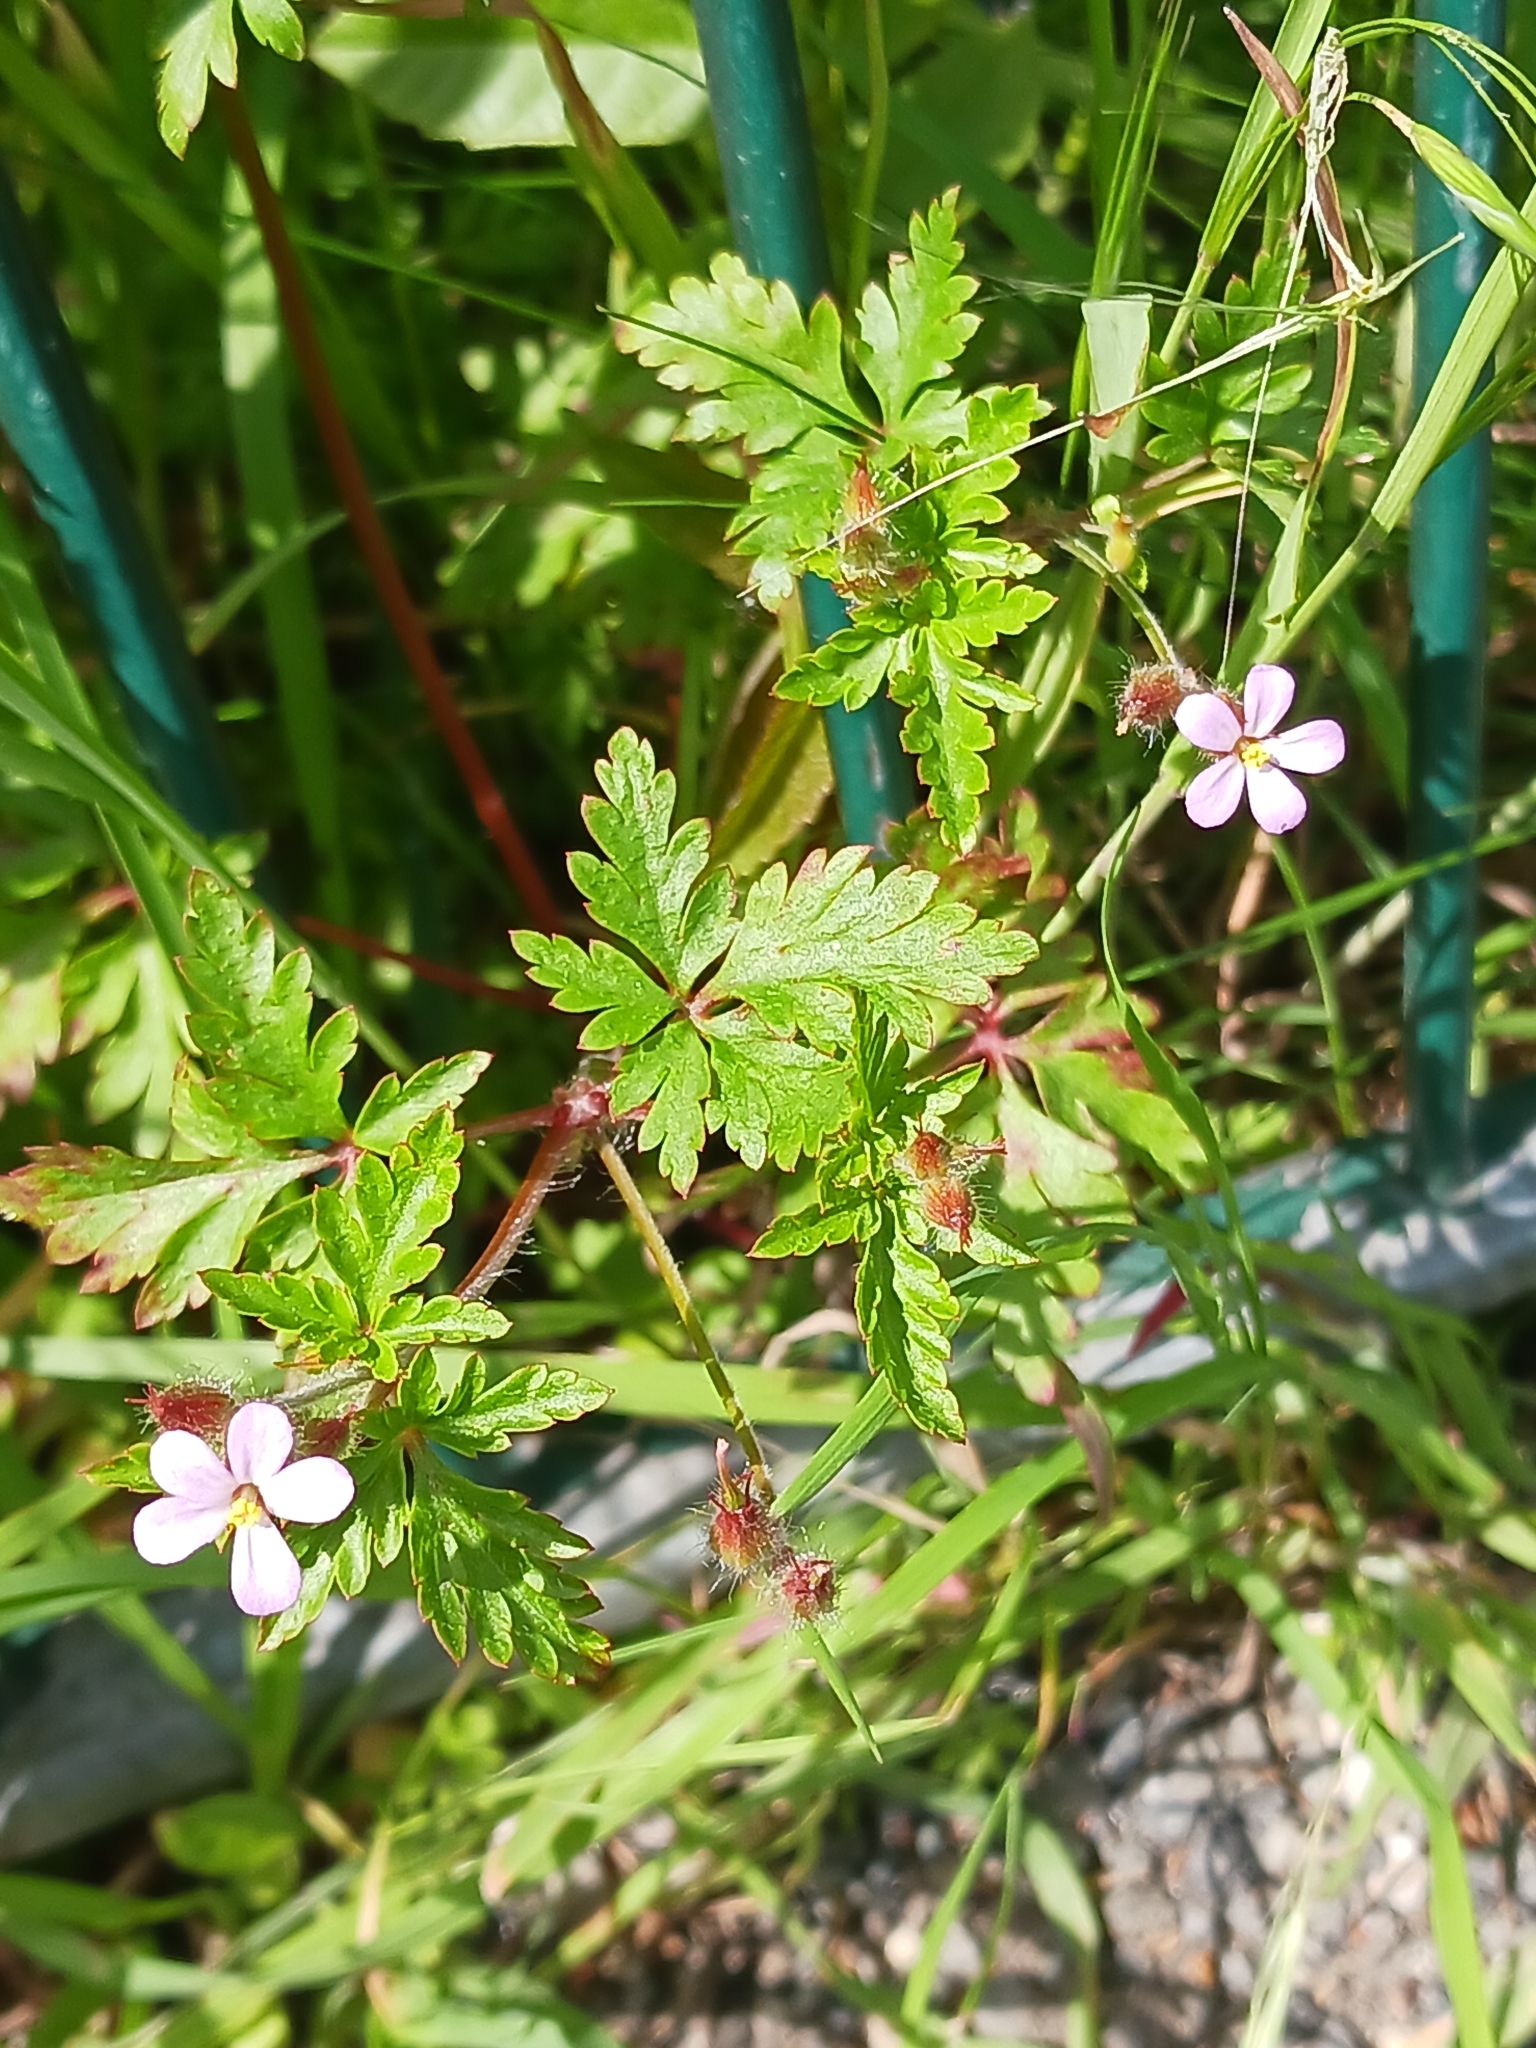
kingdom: Plantae
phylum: Tracheophyta
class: Magnoliopsida
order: Geraniales
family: Geraniaceae
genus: Geranium
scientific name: Geranium robertianum
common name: Herb-robert
